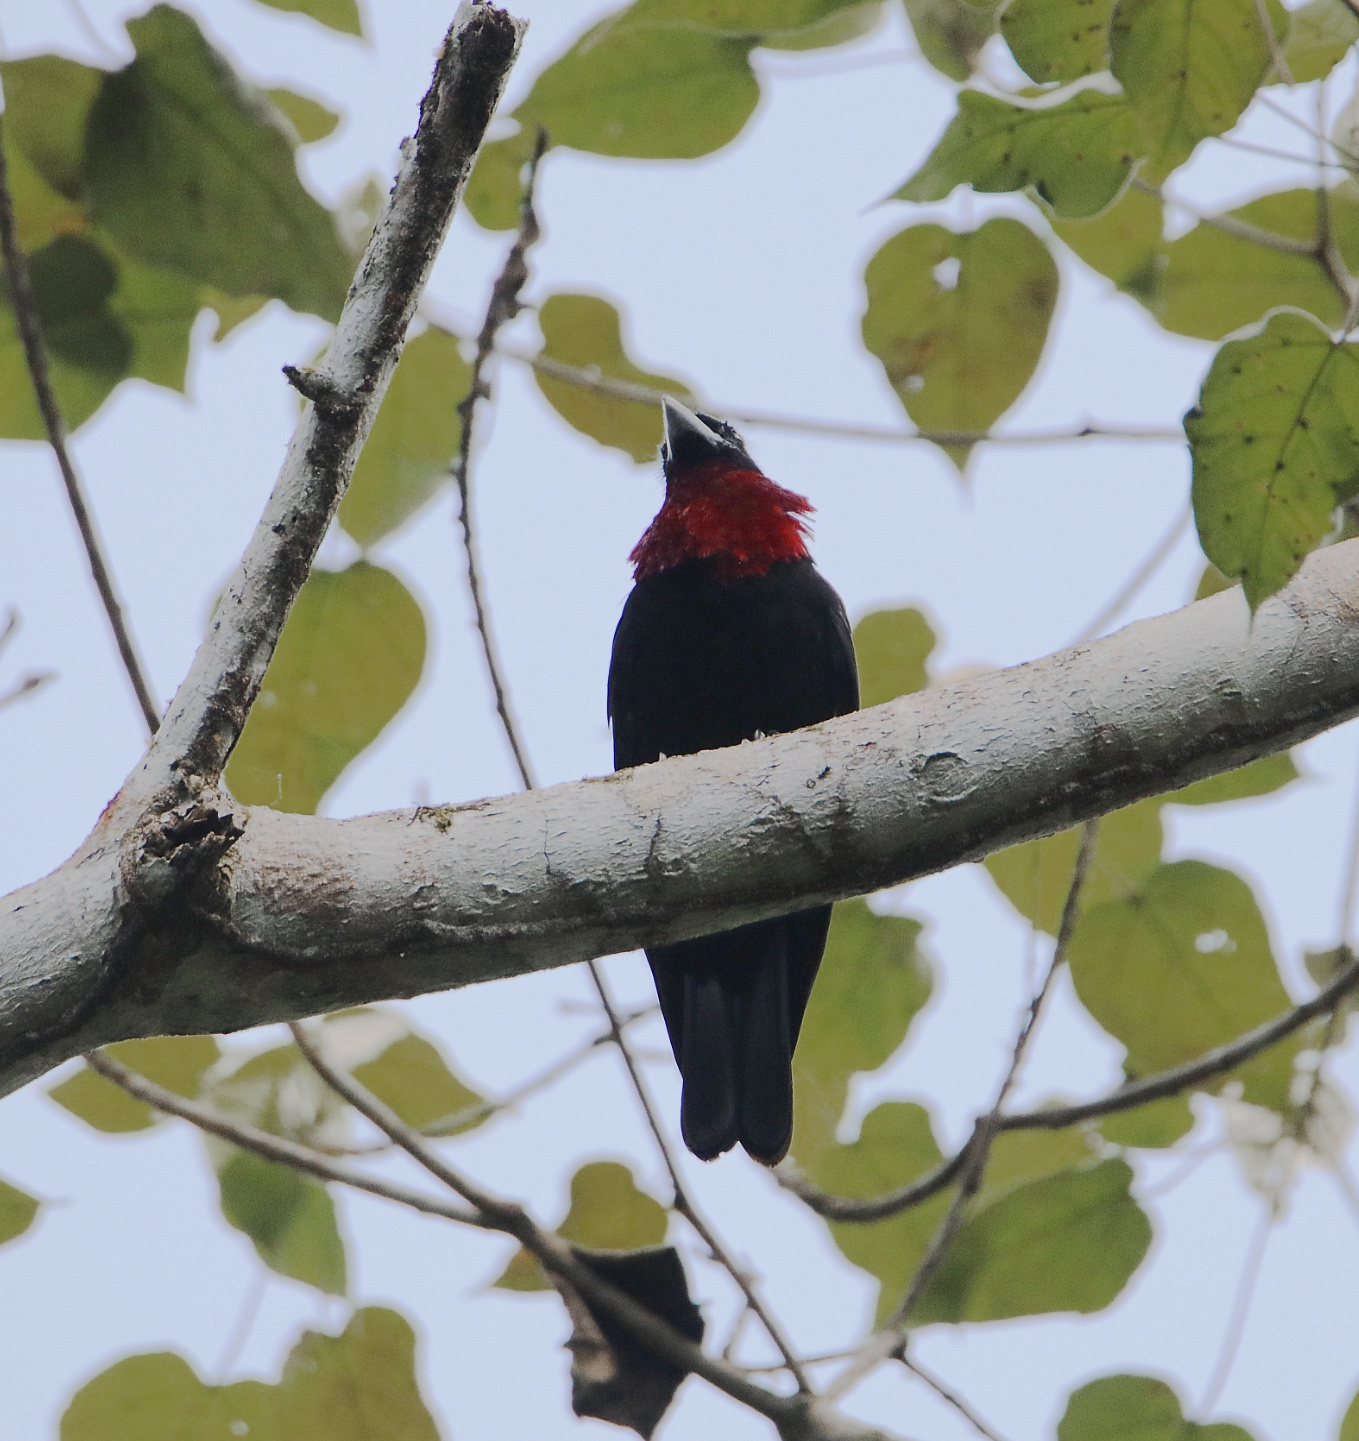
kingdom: Animalia
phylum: Chordata
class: Aves
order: Passeriformes
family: Cotingidae
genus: Querula
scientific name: Querula purpurata
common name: Purple-throated fruitcrow
